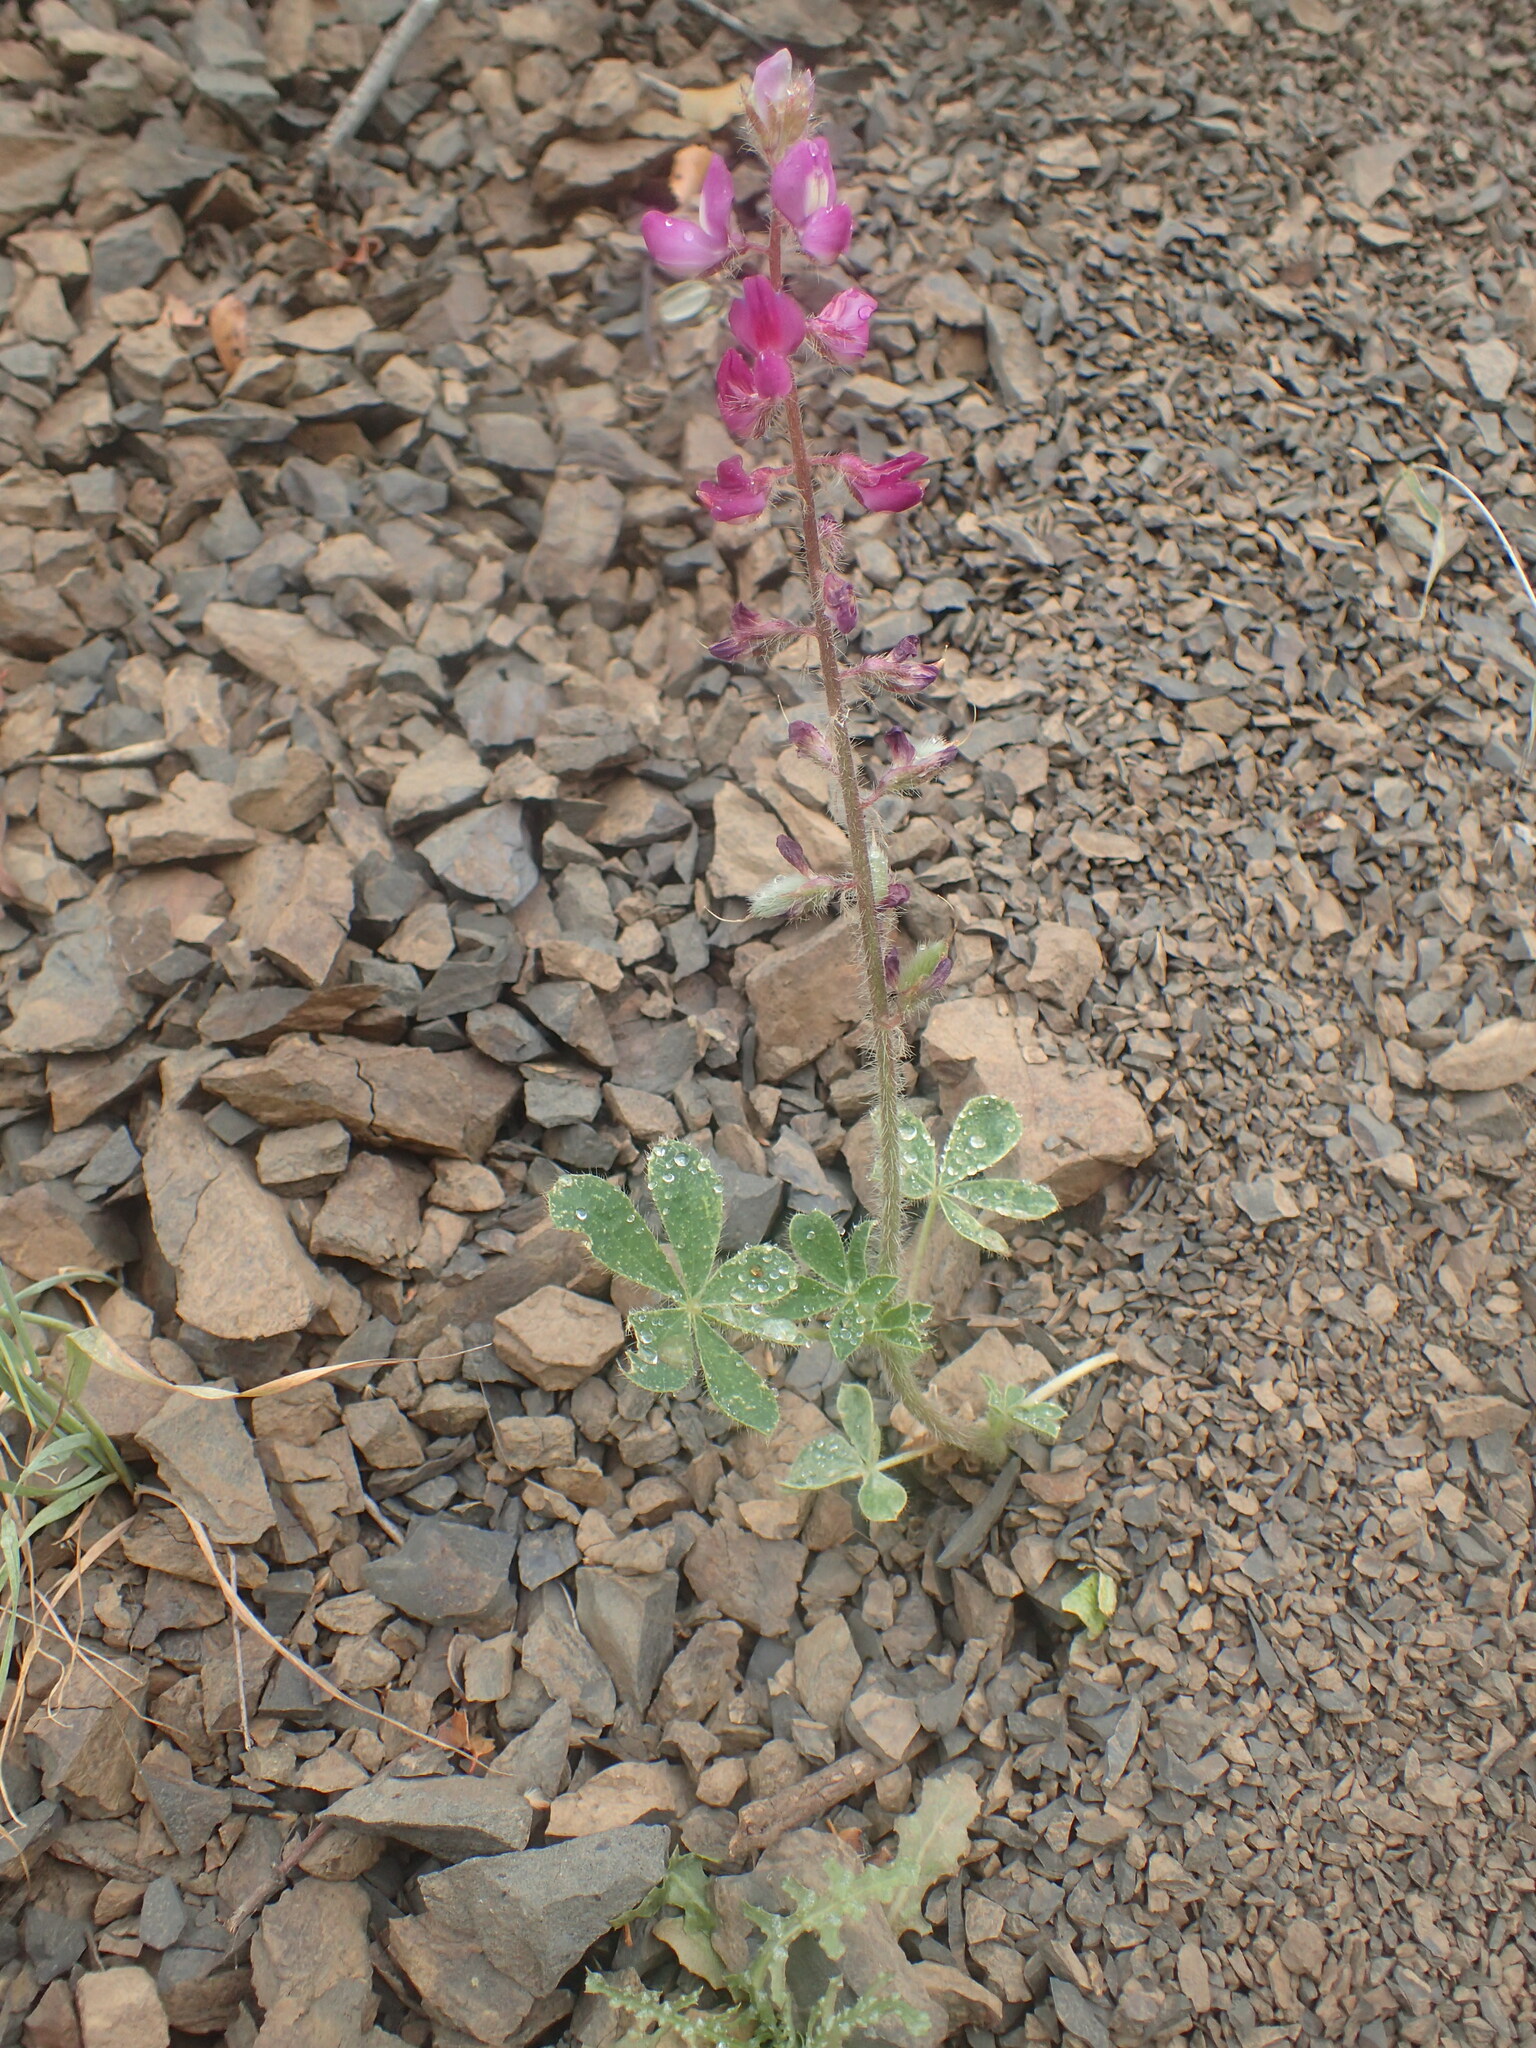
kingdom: Plantae
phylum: Tracheophyta
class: Magnoliopsida
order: Fabales
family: Fabaceae
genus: Lupinus
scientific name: Lupinus hirsutissimus
